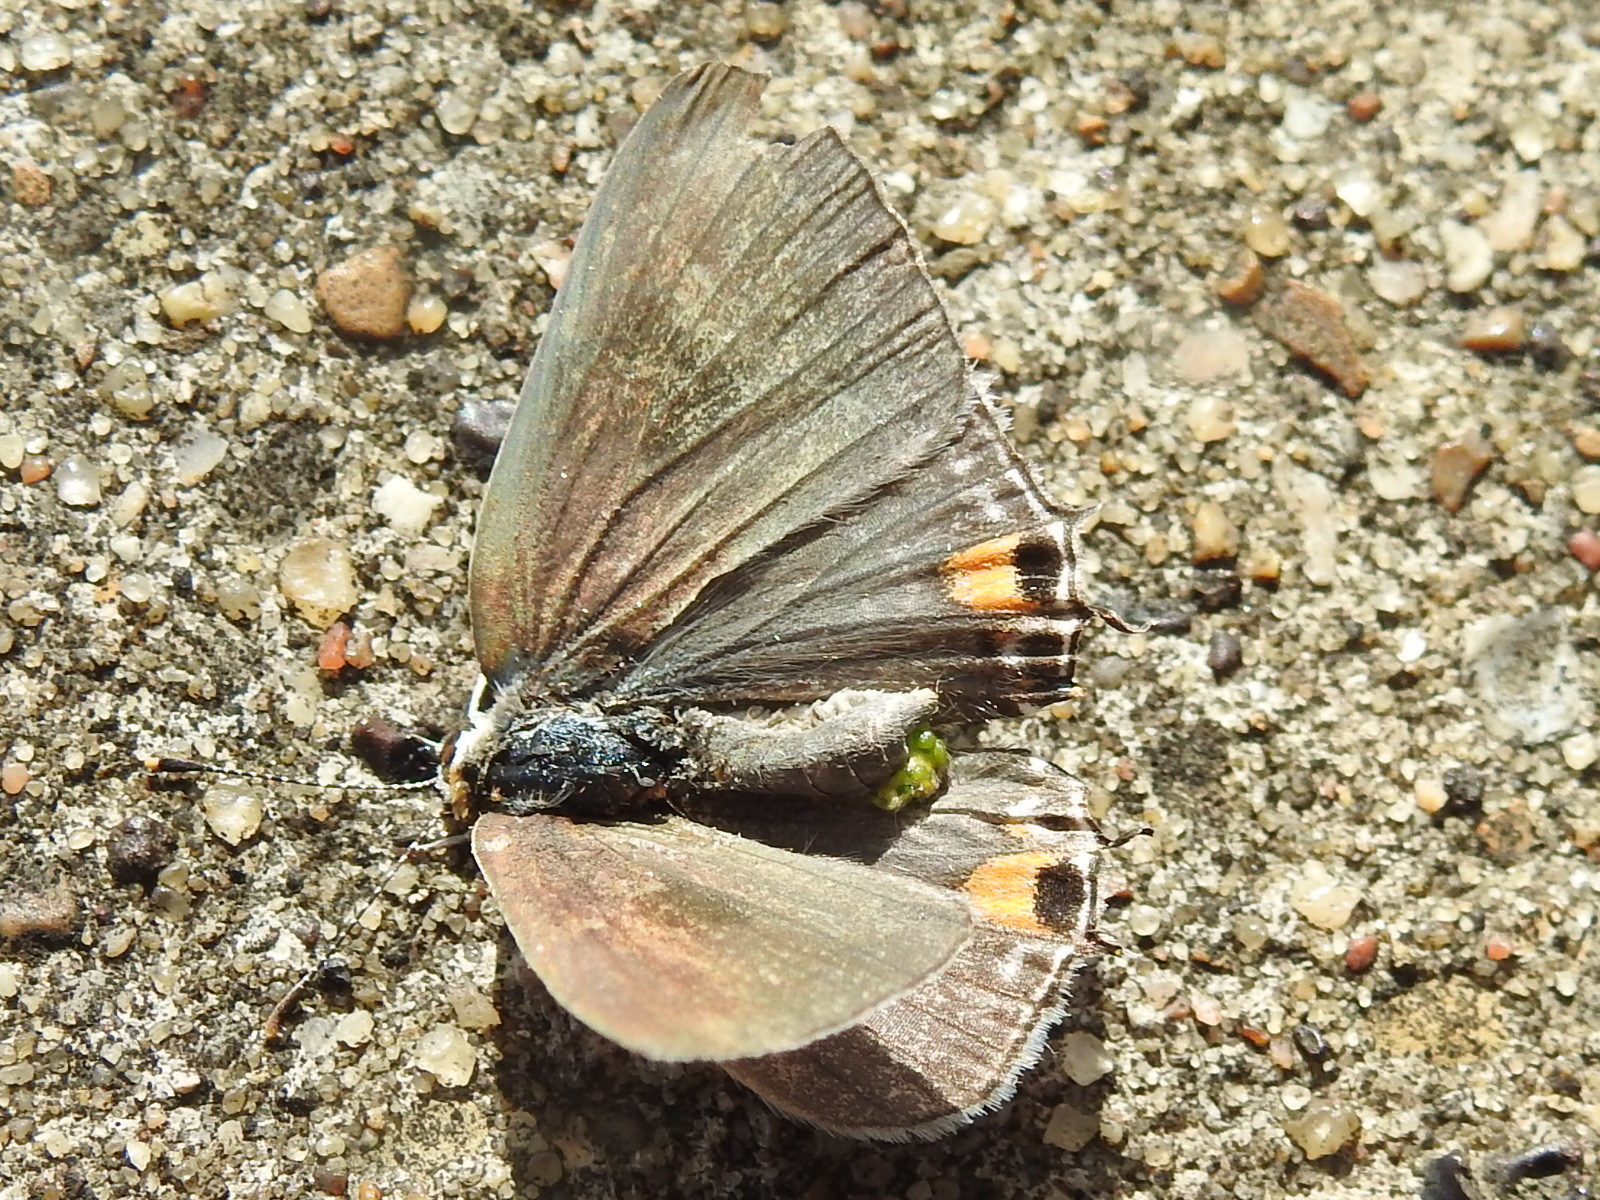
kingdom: Animalia
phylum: Arthropoda
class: Insecta
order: Lepidoptera
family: Lycaenidae
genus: Strymon
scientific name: Strymon melinus
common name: Gray hairstreak
